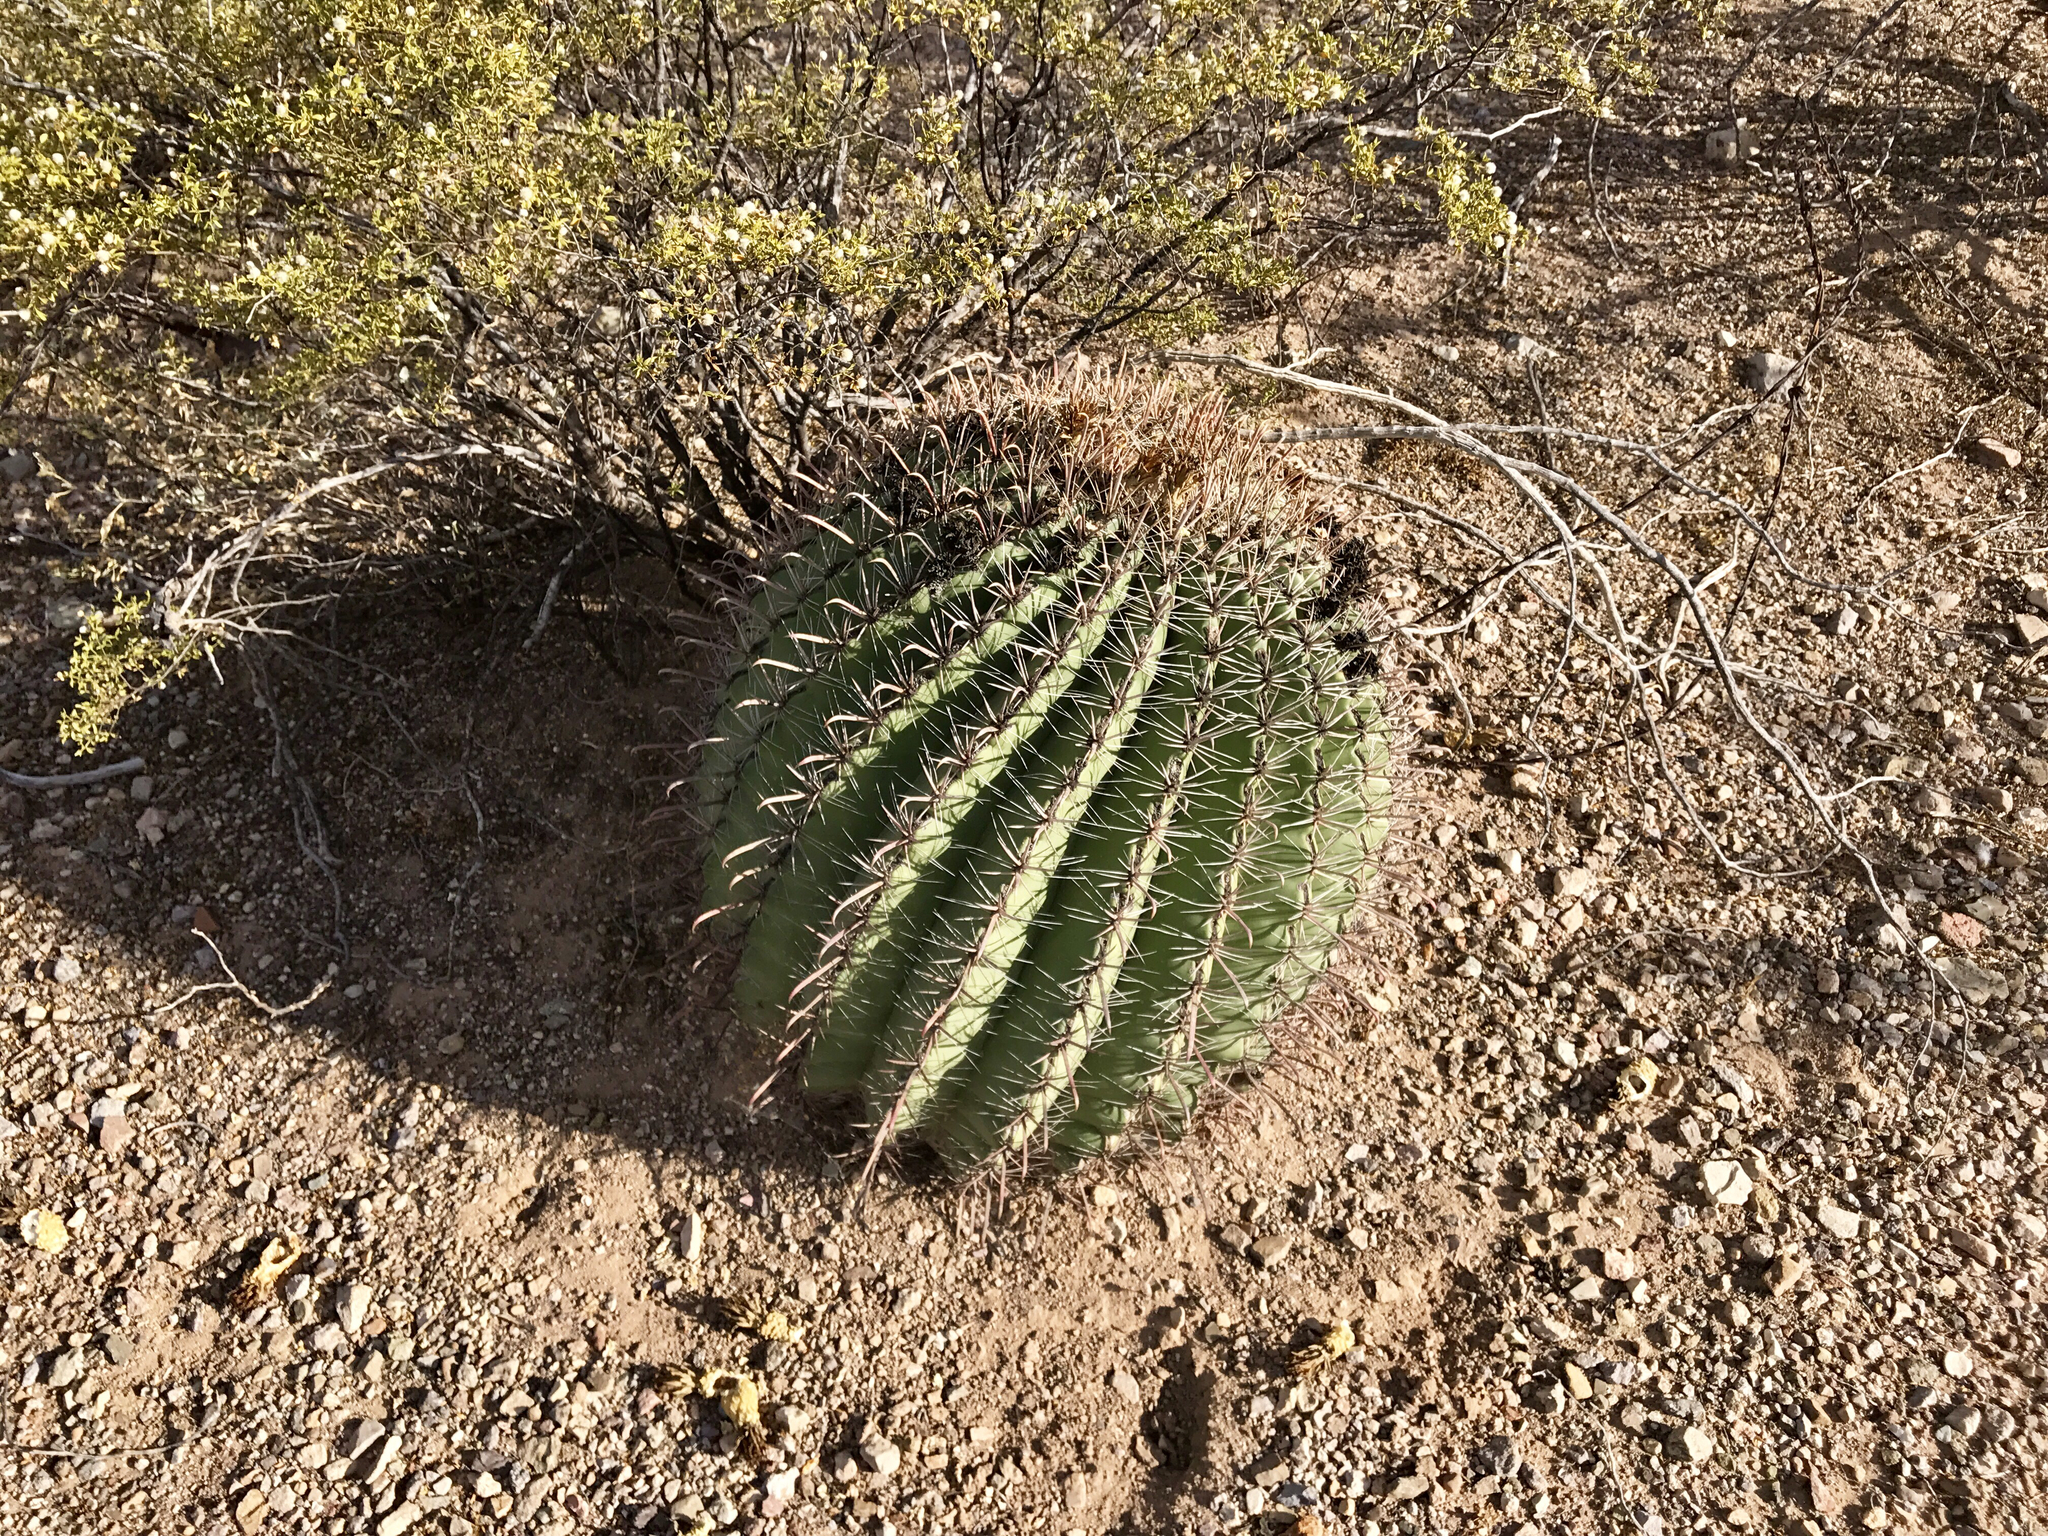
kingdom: Plantae
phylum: Tracheophyta
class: Magnoliopsida
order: Caryophyllales
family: Cactaceae
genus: Ferocactus
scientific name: Ferocactus wislizeni
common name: Candy barrel cactus
